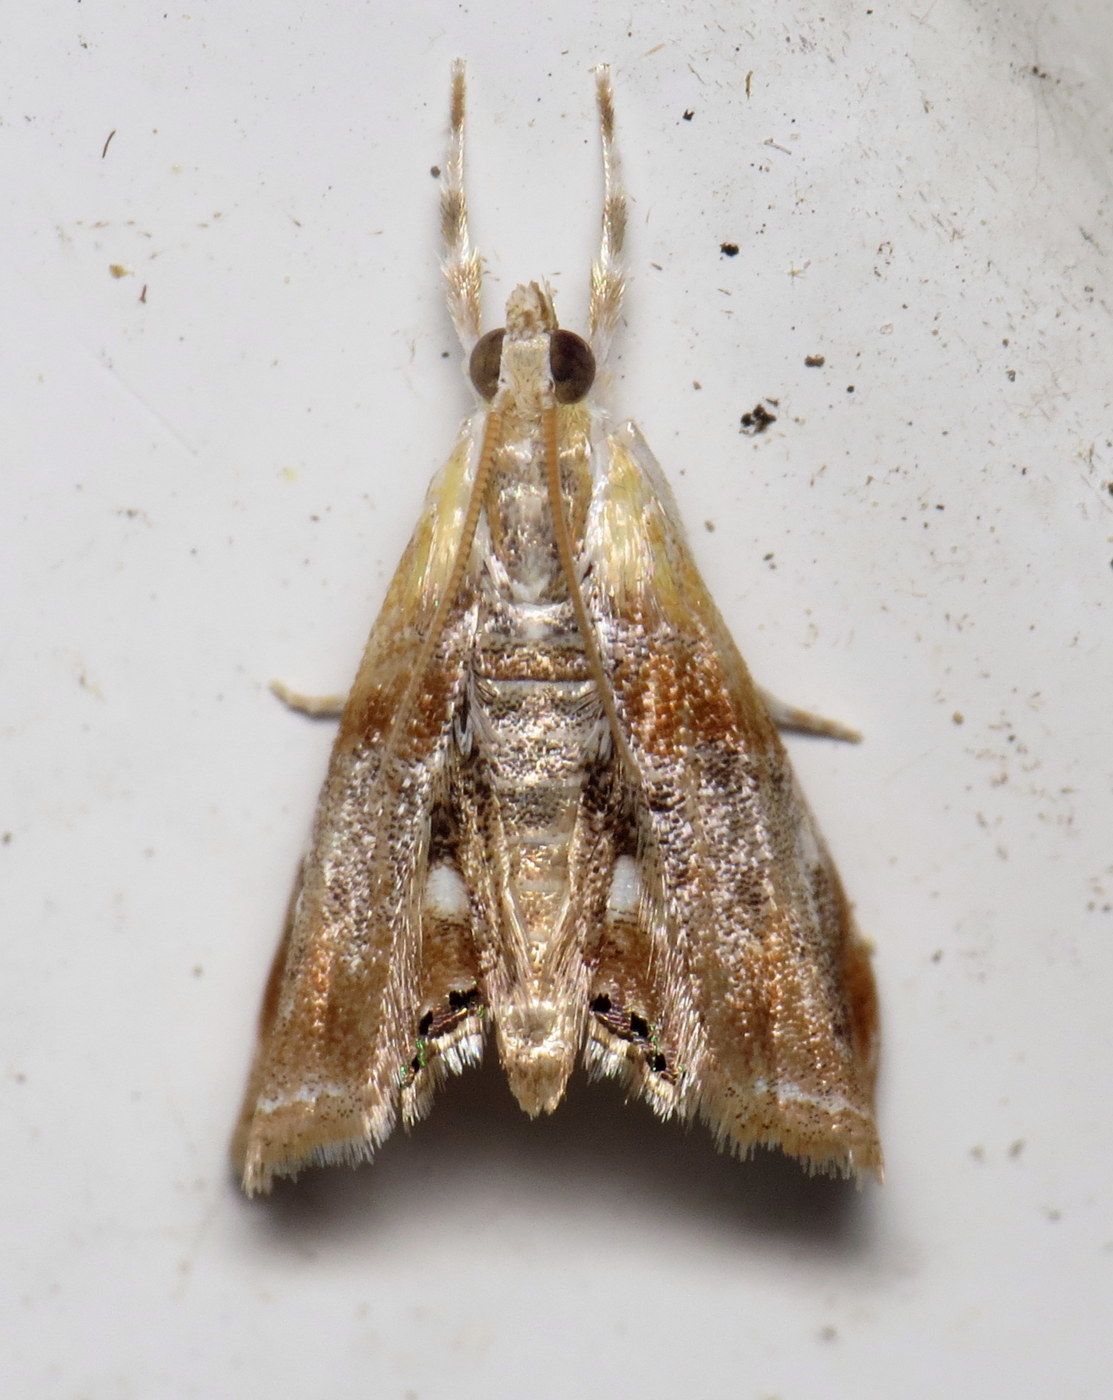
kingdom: Animalia
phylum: Arthropoda
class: Insecta
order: Lepidoptera
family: Crambidae
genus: Dicymolomia
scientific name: Dicymolomia julianalis
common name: Julia's dicymolomia moth
